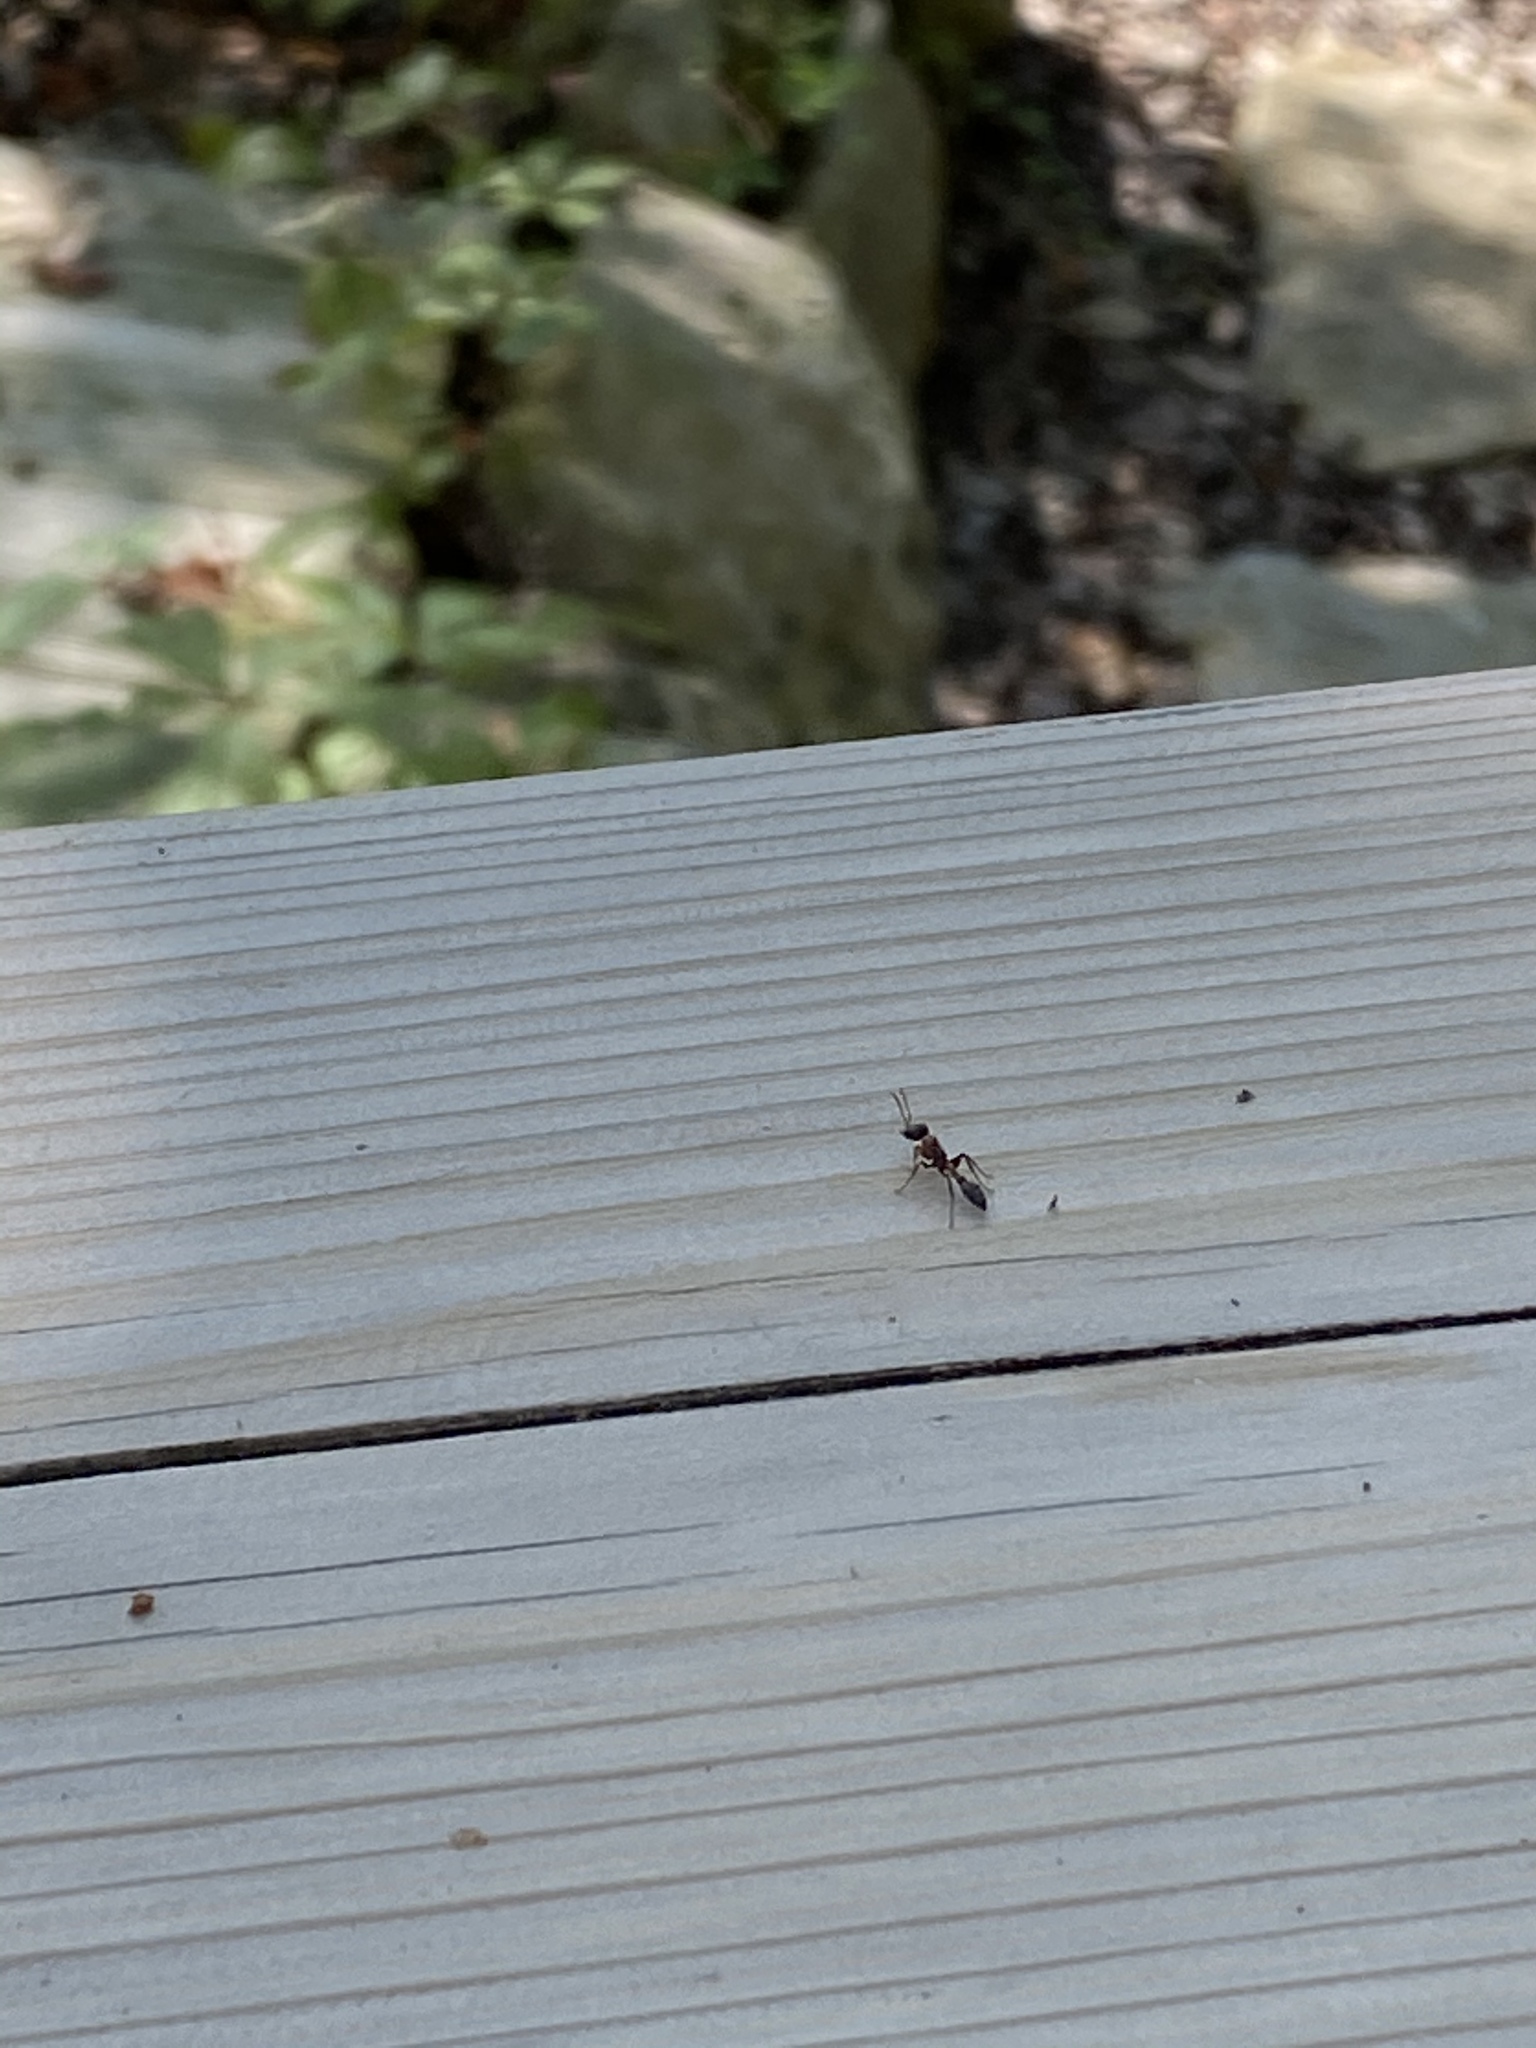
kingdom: Animalia
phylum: Arthropoda
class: Insecta
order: Hymenoptera
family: Formicidae
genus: Pseudomyrmex
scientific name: Pseudomyrmex gracilis
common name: Graceful twig ant
